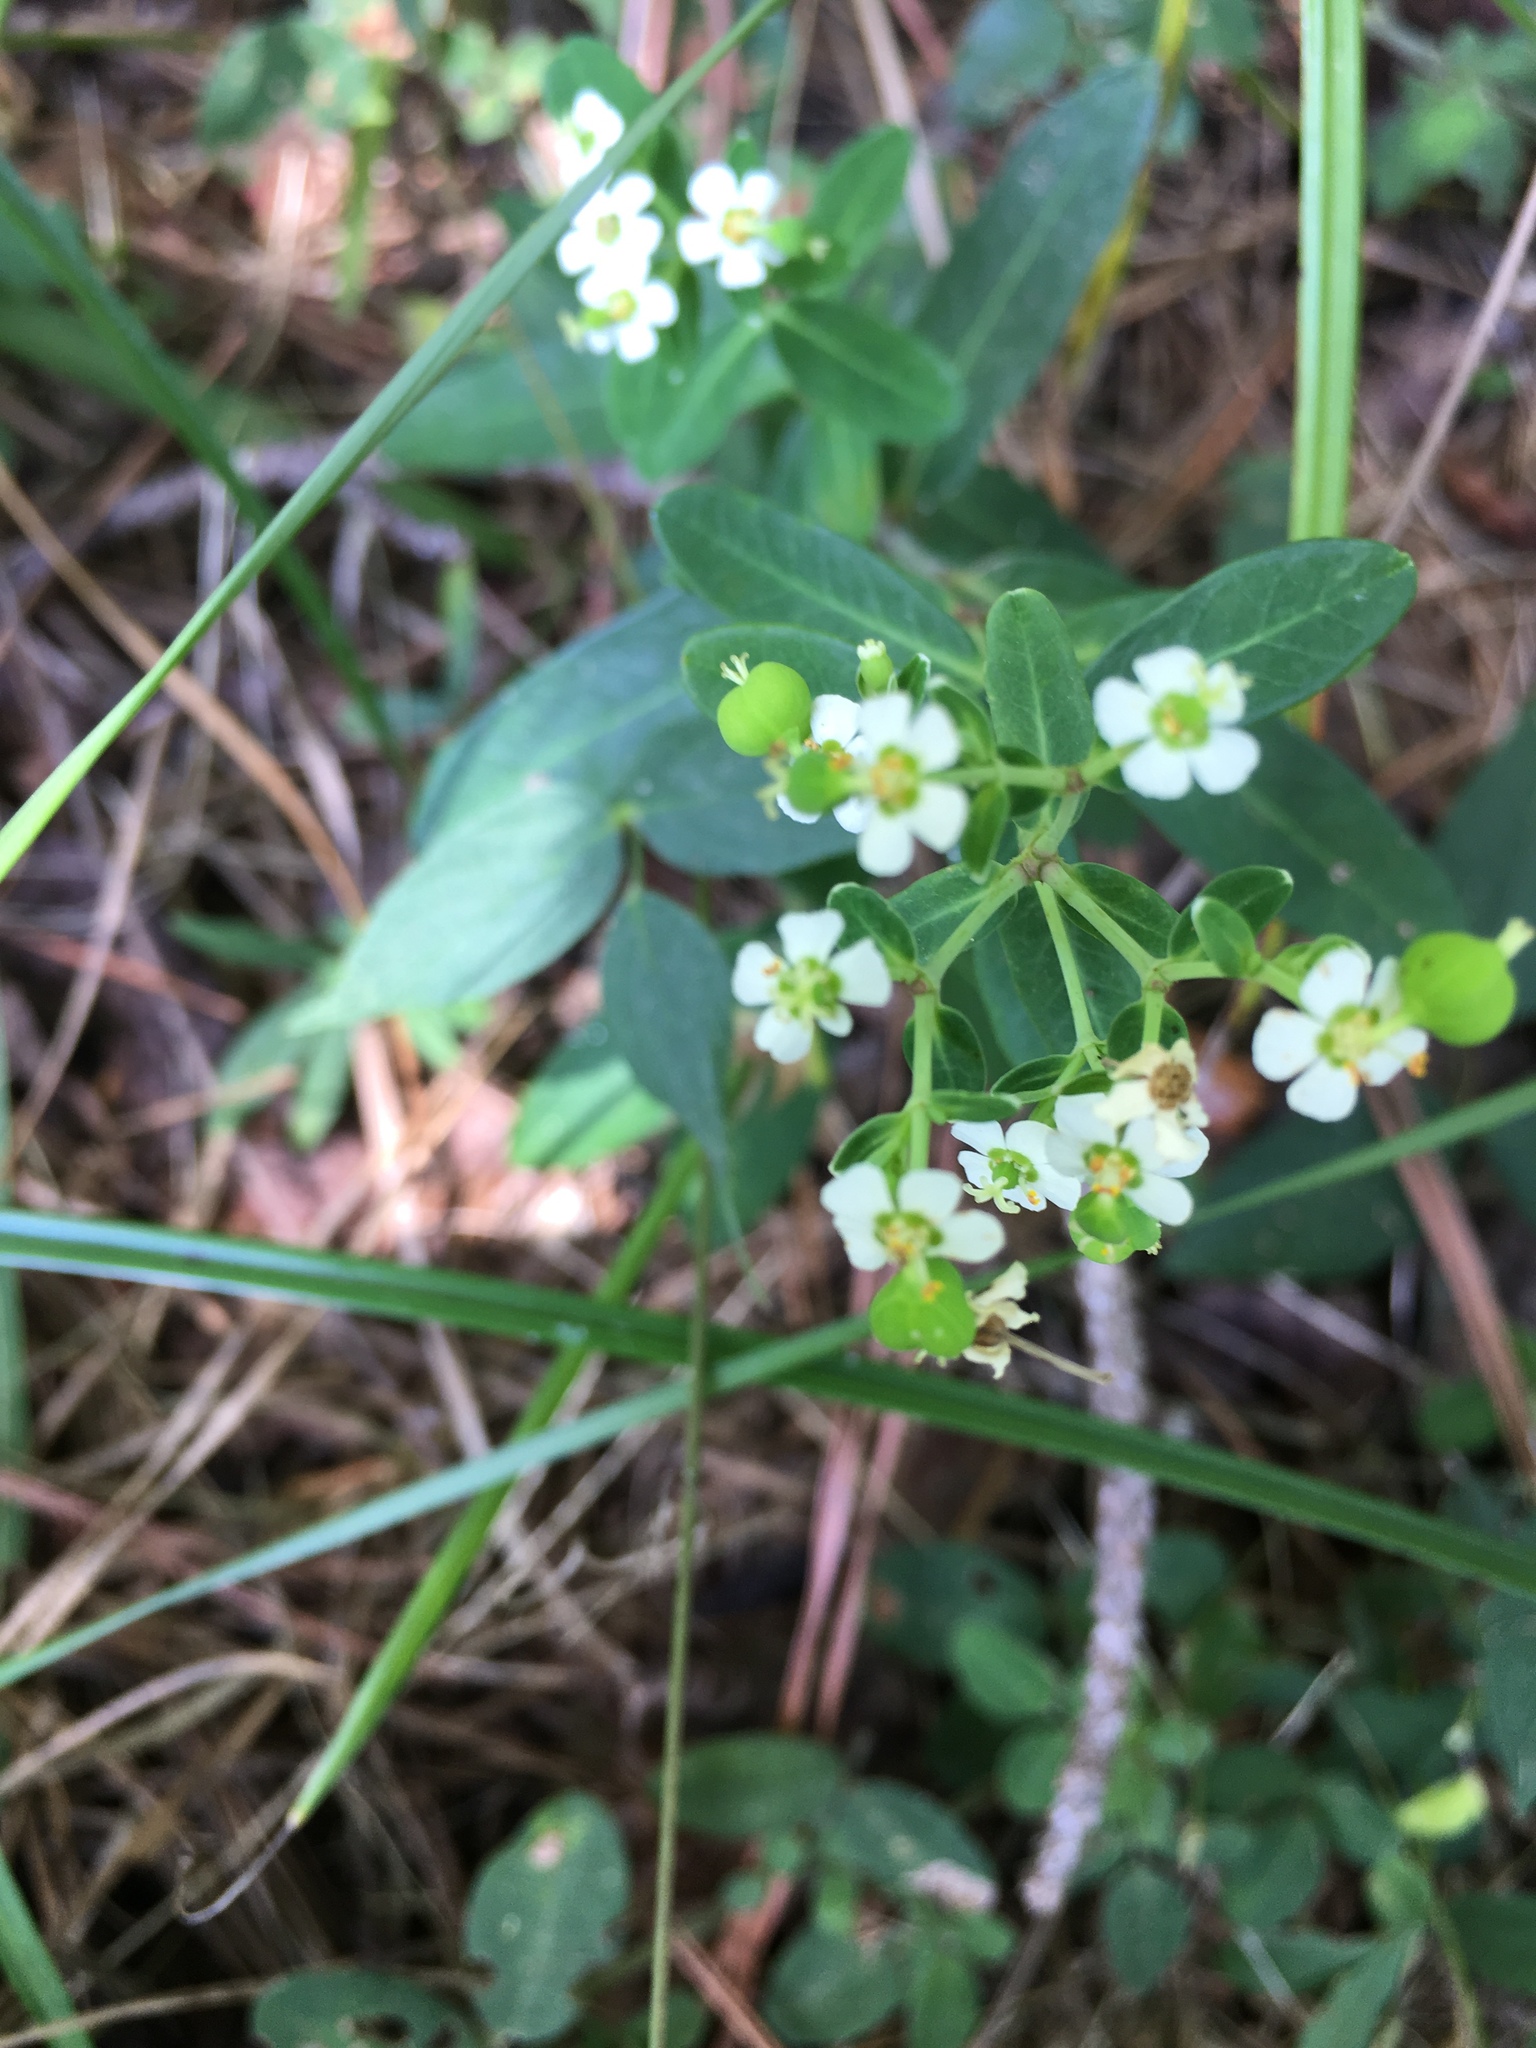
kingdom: Plantae
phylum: Tracheophyta
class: Magnoliopsida
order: Malpighiales
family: Euphorbiaceae
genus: Euphorbia
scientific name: Euphorbia corollata
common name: Flowering spurge
